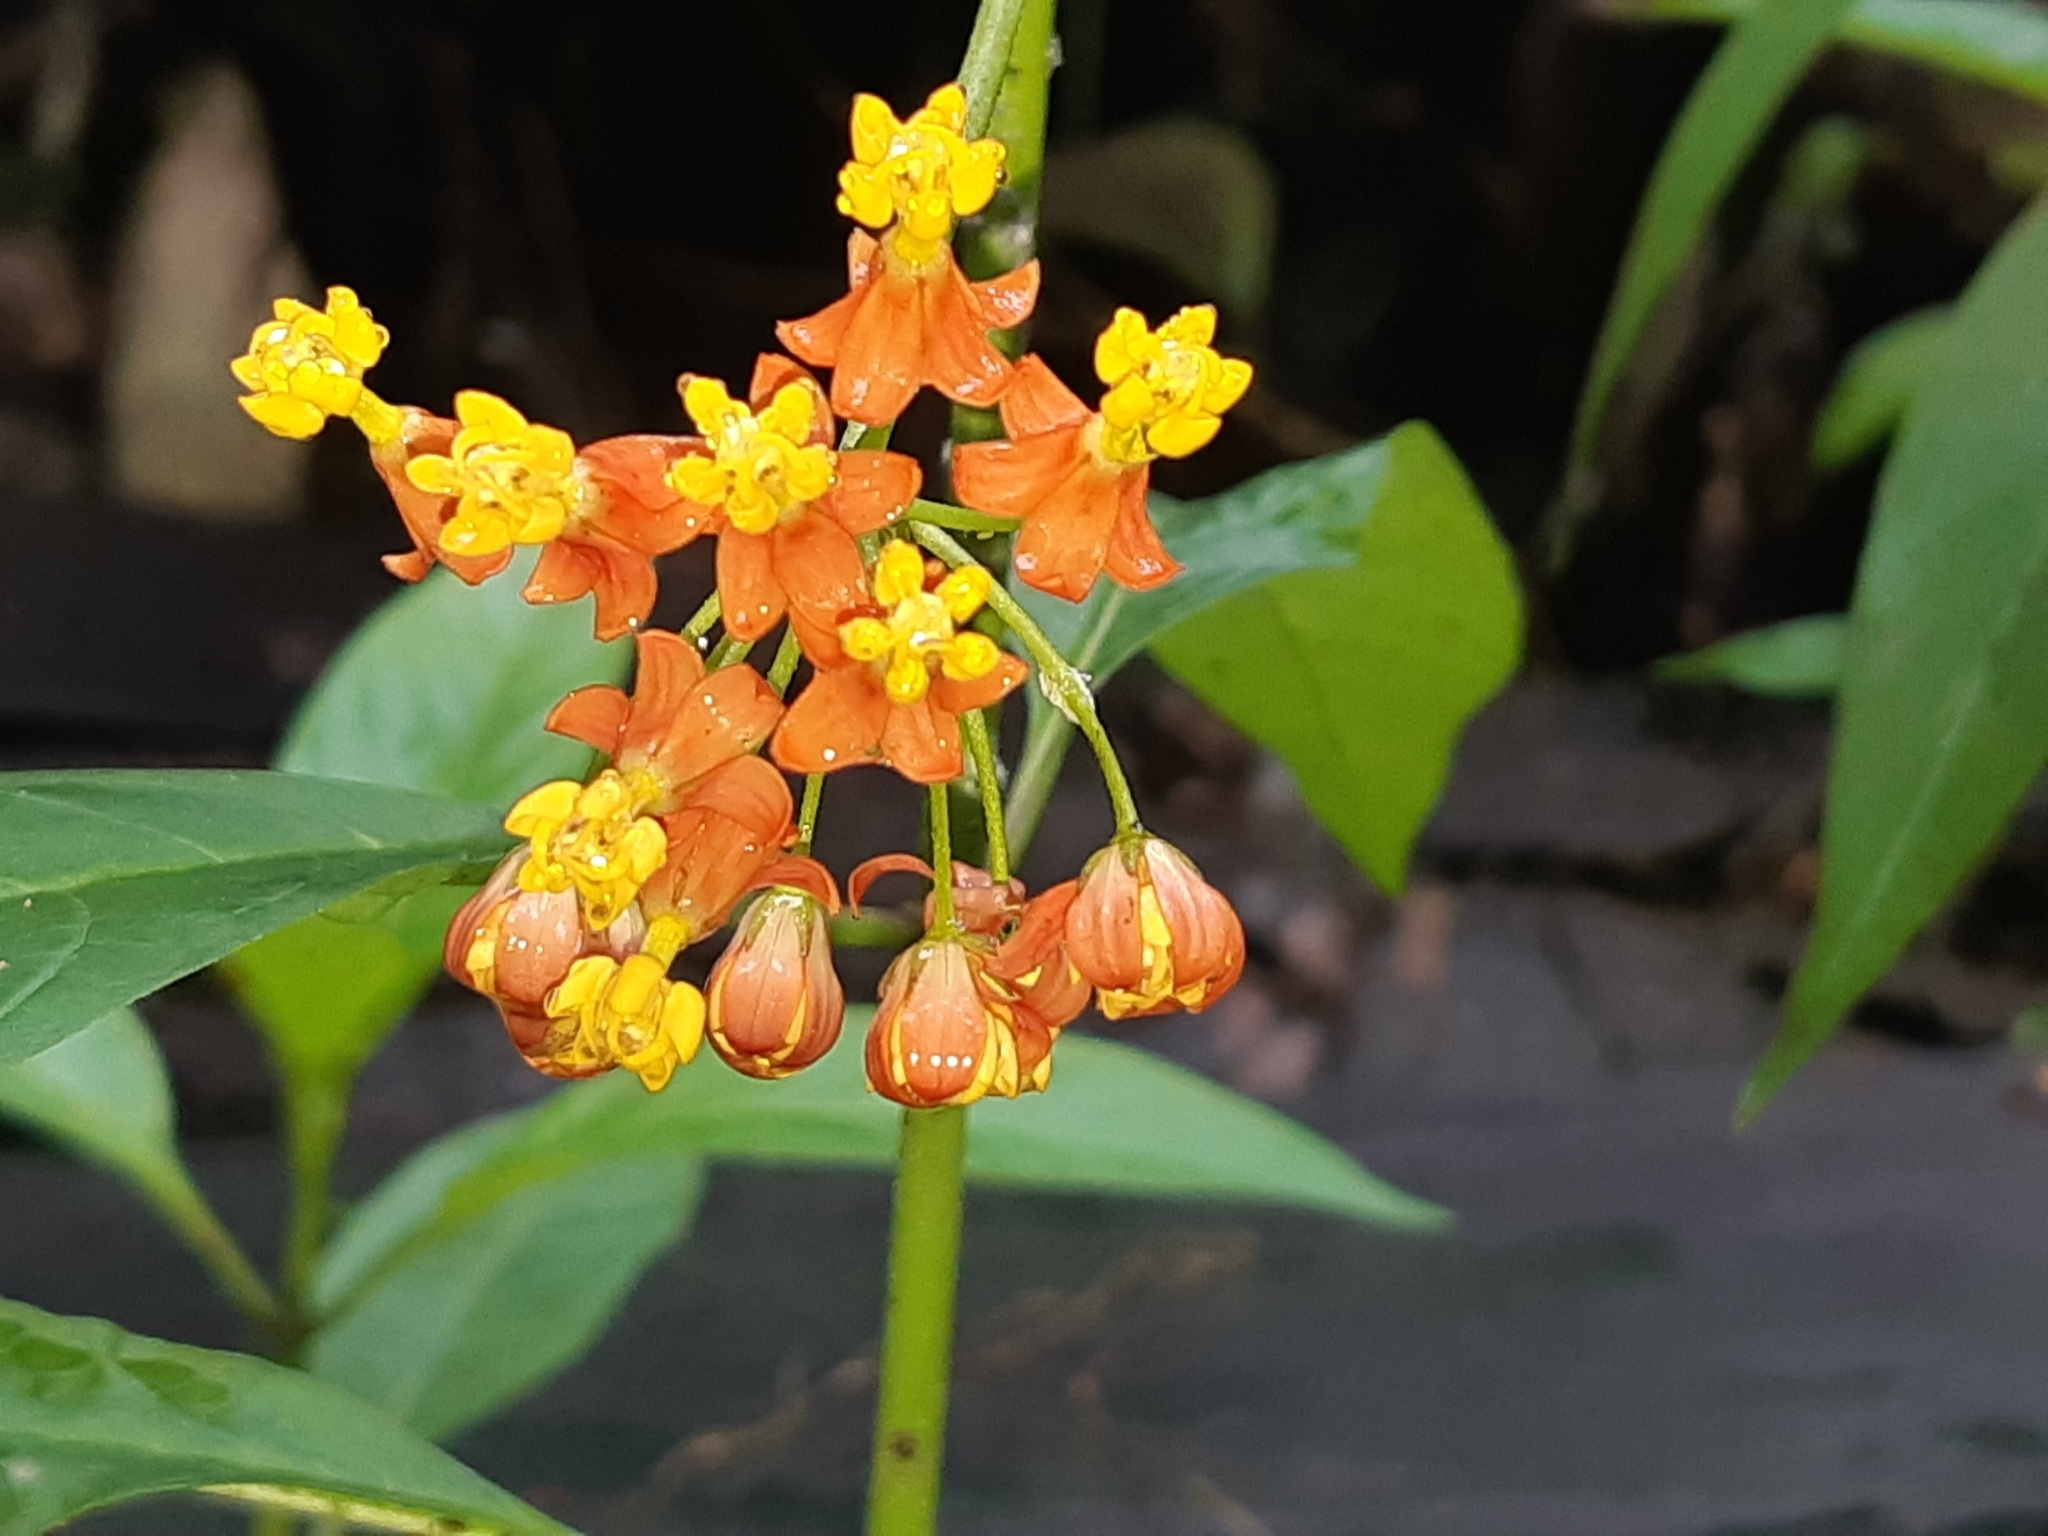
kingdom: Plantae
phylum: Tracheophyta
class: Magnoliopsida
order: Gentianales
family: Apocynaceae
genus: Asclepias
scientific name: Asclepias curassavica
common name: Bloodflower
